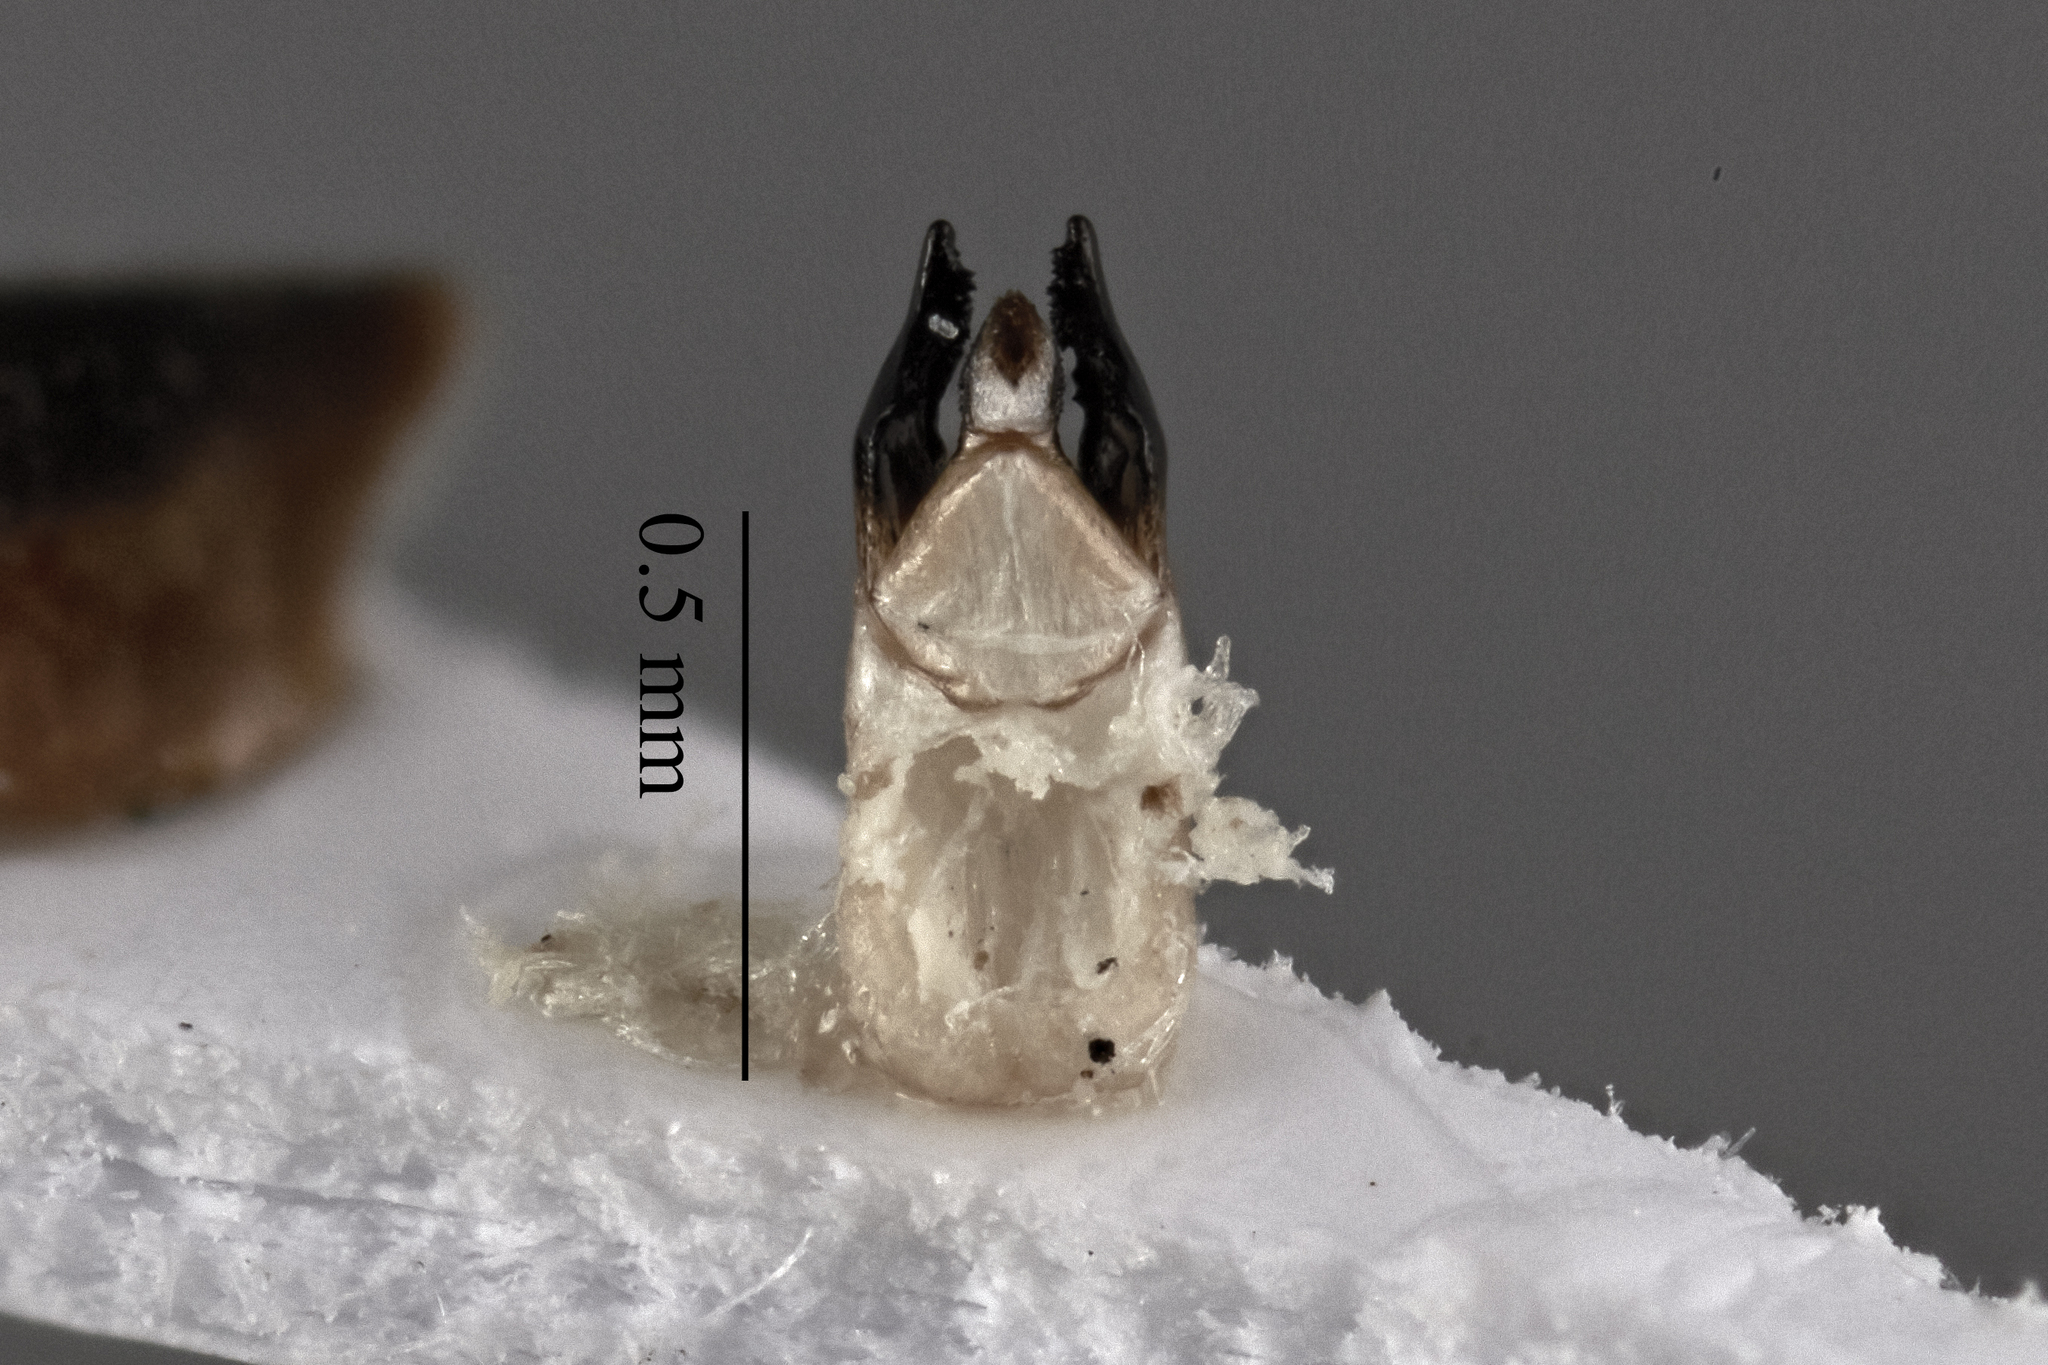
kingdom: Animalia
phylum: Arthropoda
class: Insecta
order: Coleoptera
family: Lampyridae
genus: Photinus
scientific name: Photinus sabulosus
